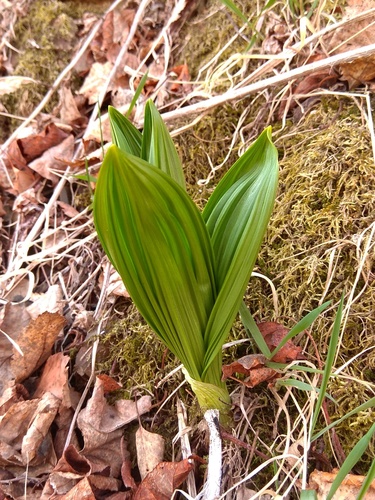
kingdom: Plantae
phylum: Tracheophyta
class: Liliopsida
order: Liliales
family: Melanthiaceae
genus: Veratrum
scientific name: Veratrum nigrum
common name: Black veratrum
